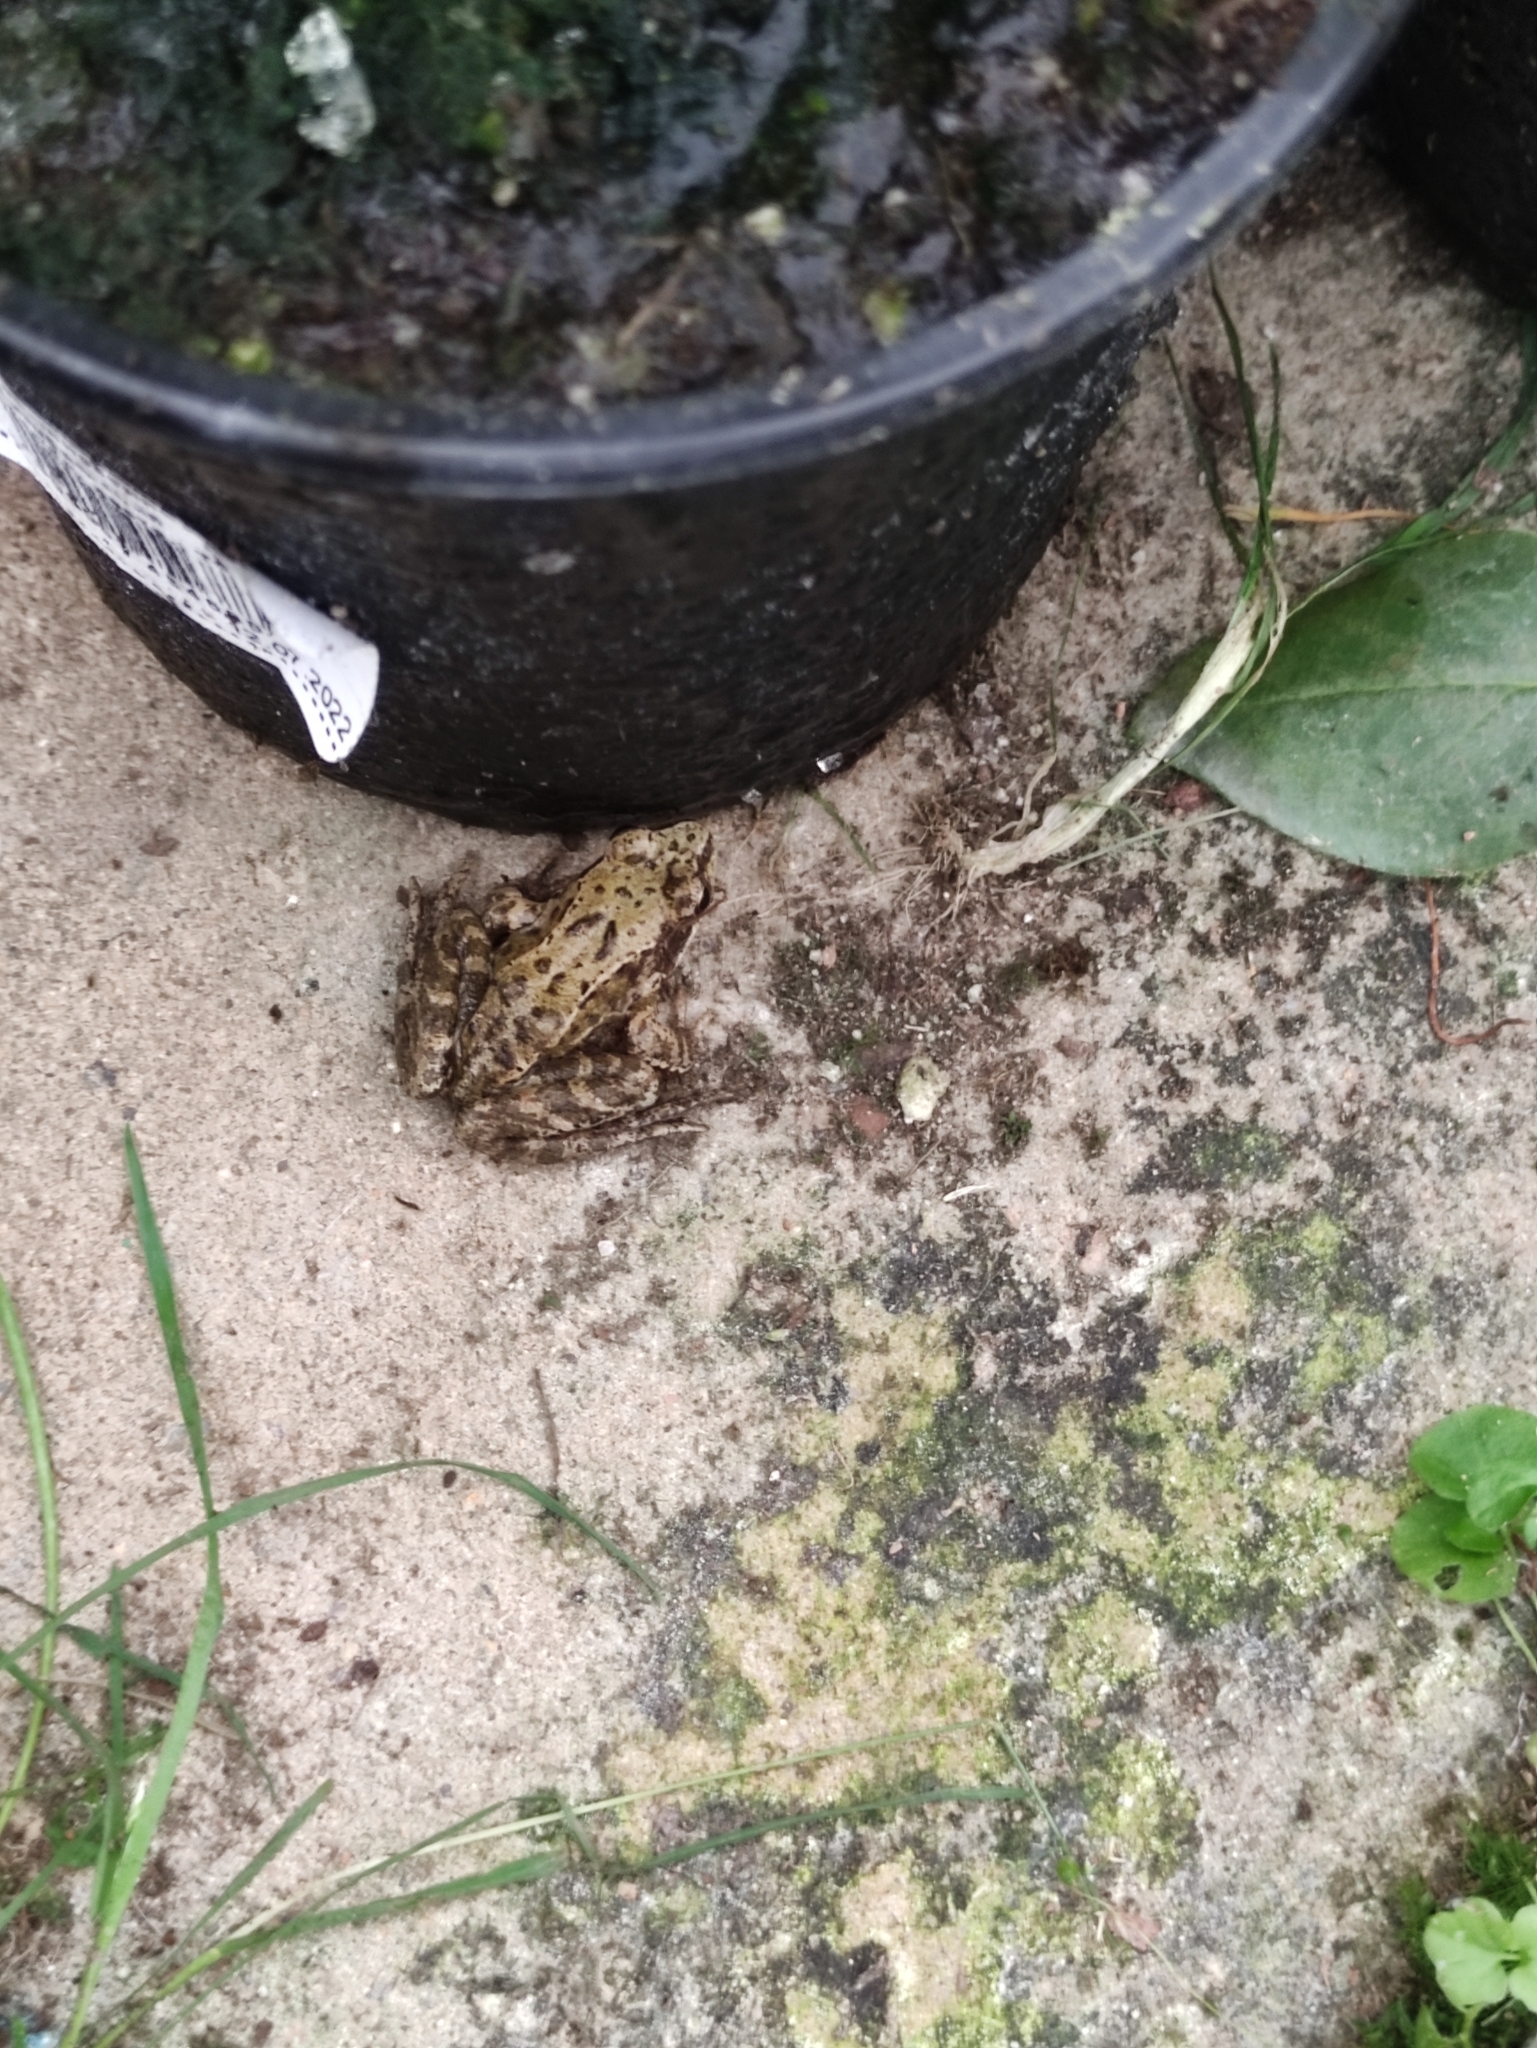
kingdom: Animalia
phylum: Chordata
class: Amphibia
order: Anura
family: Ranidae
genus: Rana
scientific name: Rana temporaria
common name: Common frog
